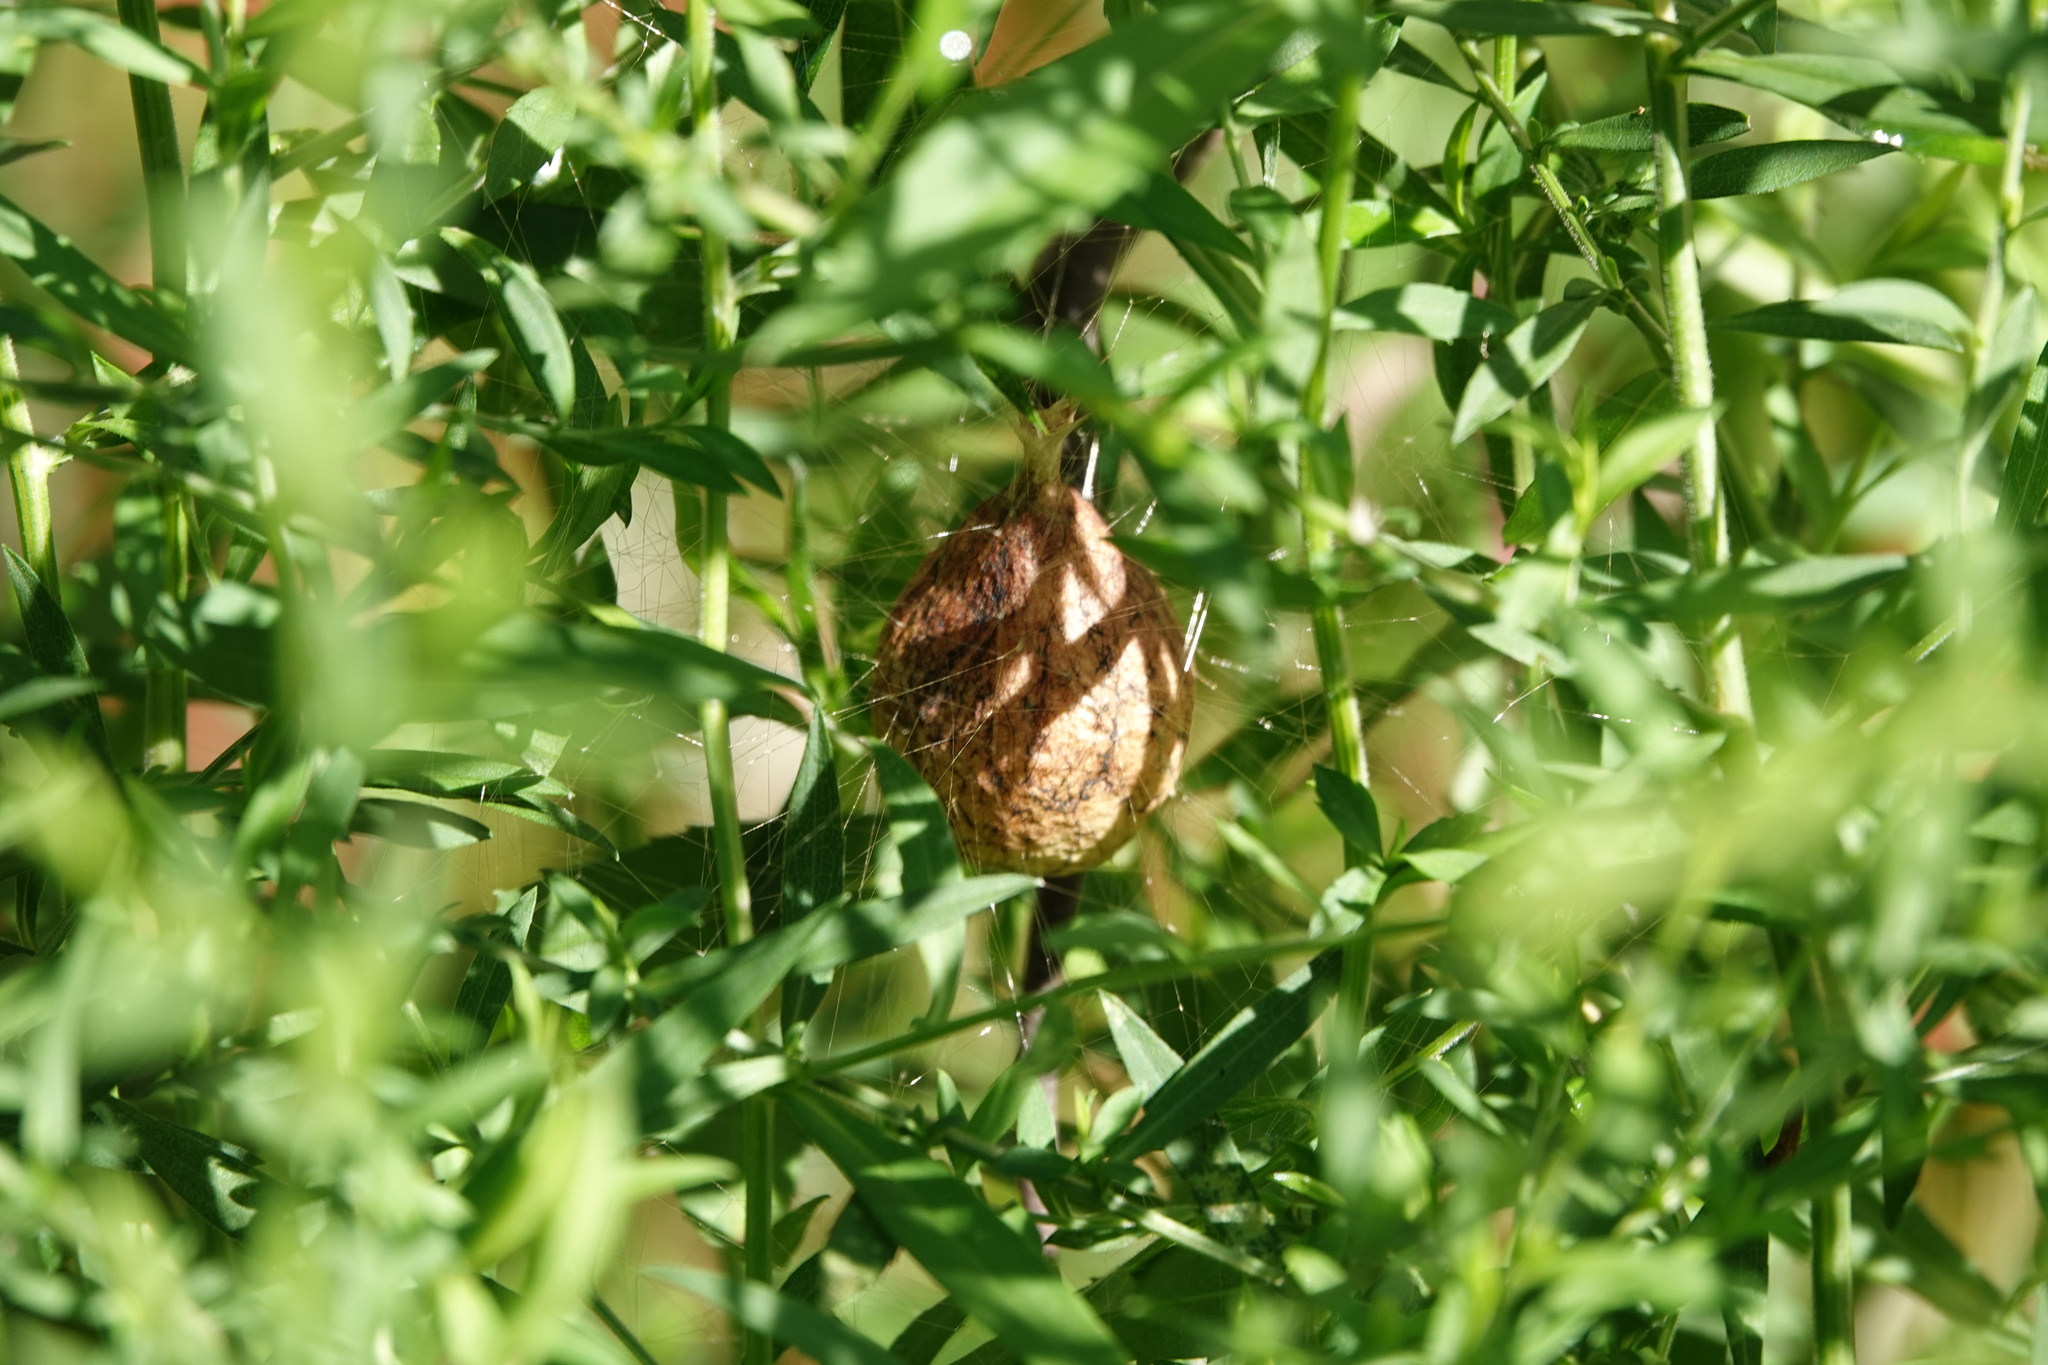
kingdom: Animalia
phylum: Arthropoda
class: Arachnida
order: Araneae
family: Araneidae
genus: Argiope
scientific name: Argiope aurantia
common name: Orb weavers
